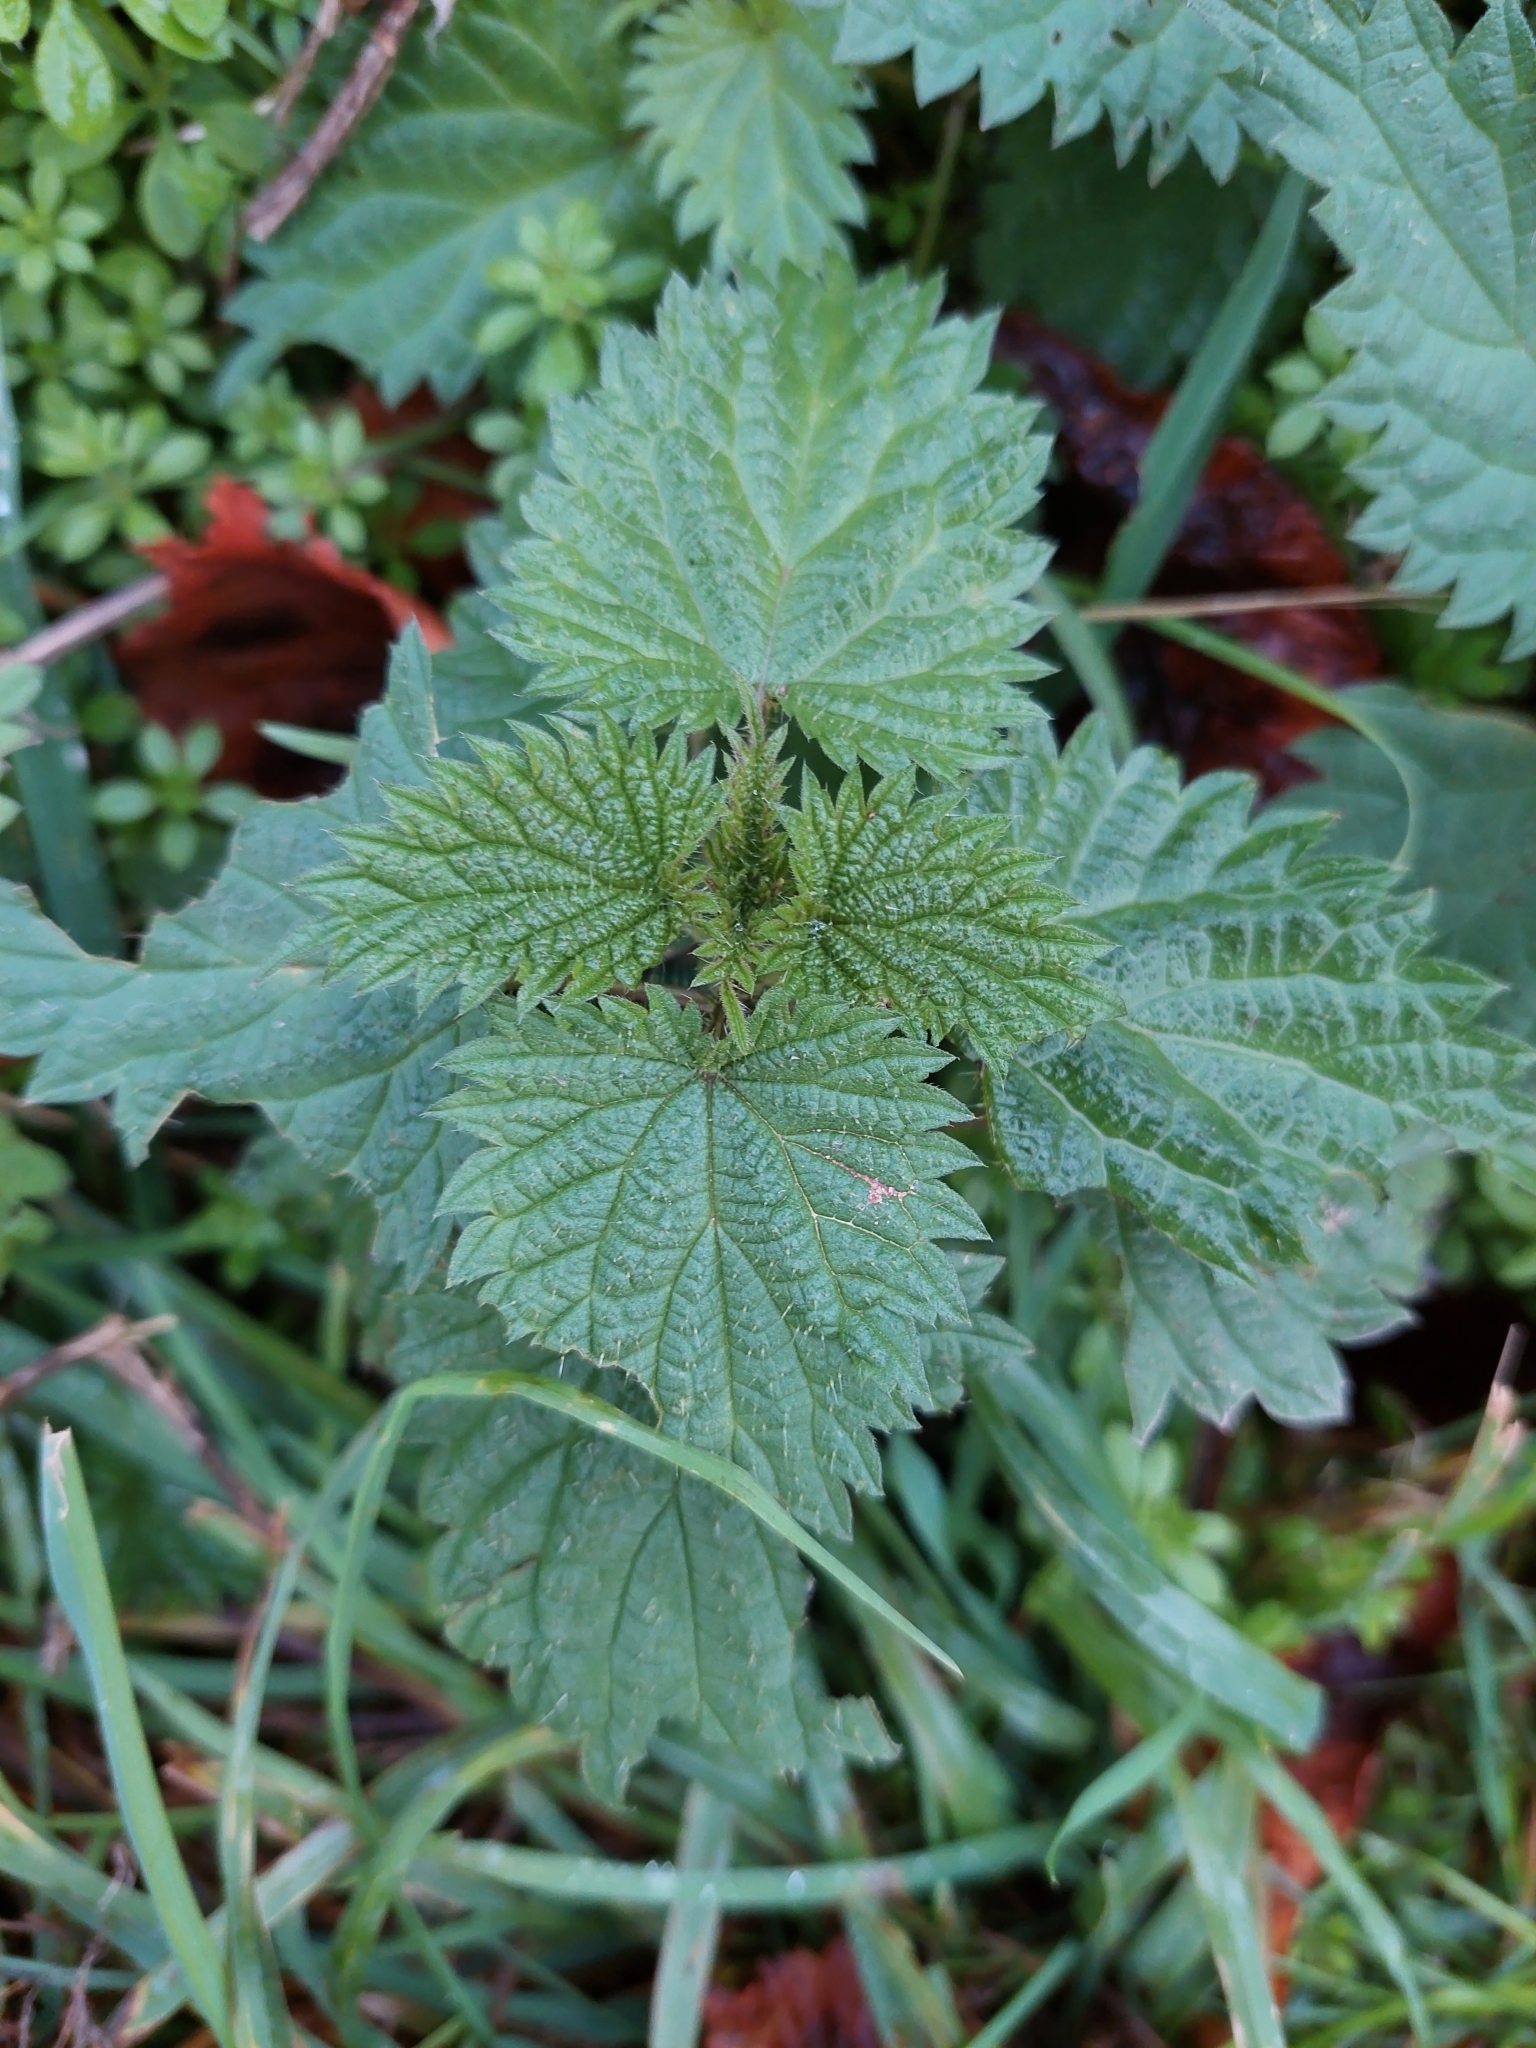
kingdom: Plantae
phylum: Tracheophyta
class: Magnoliopsida
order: Rosales
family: Urticaceae
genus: Urtica
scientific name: Urtica dioica
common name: Common nettle
